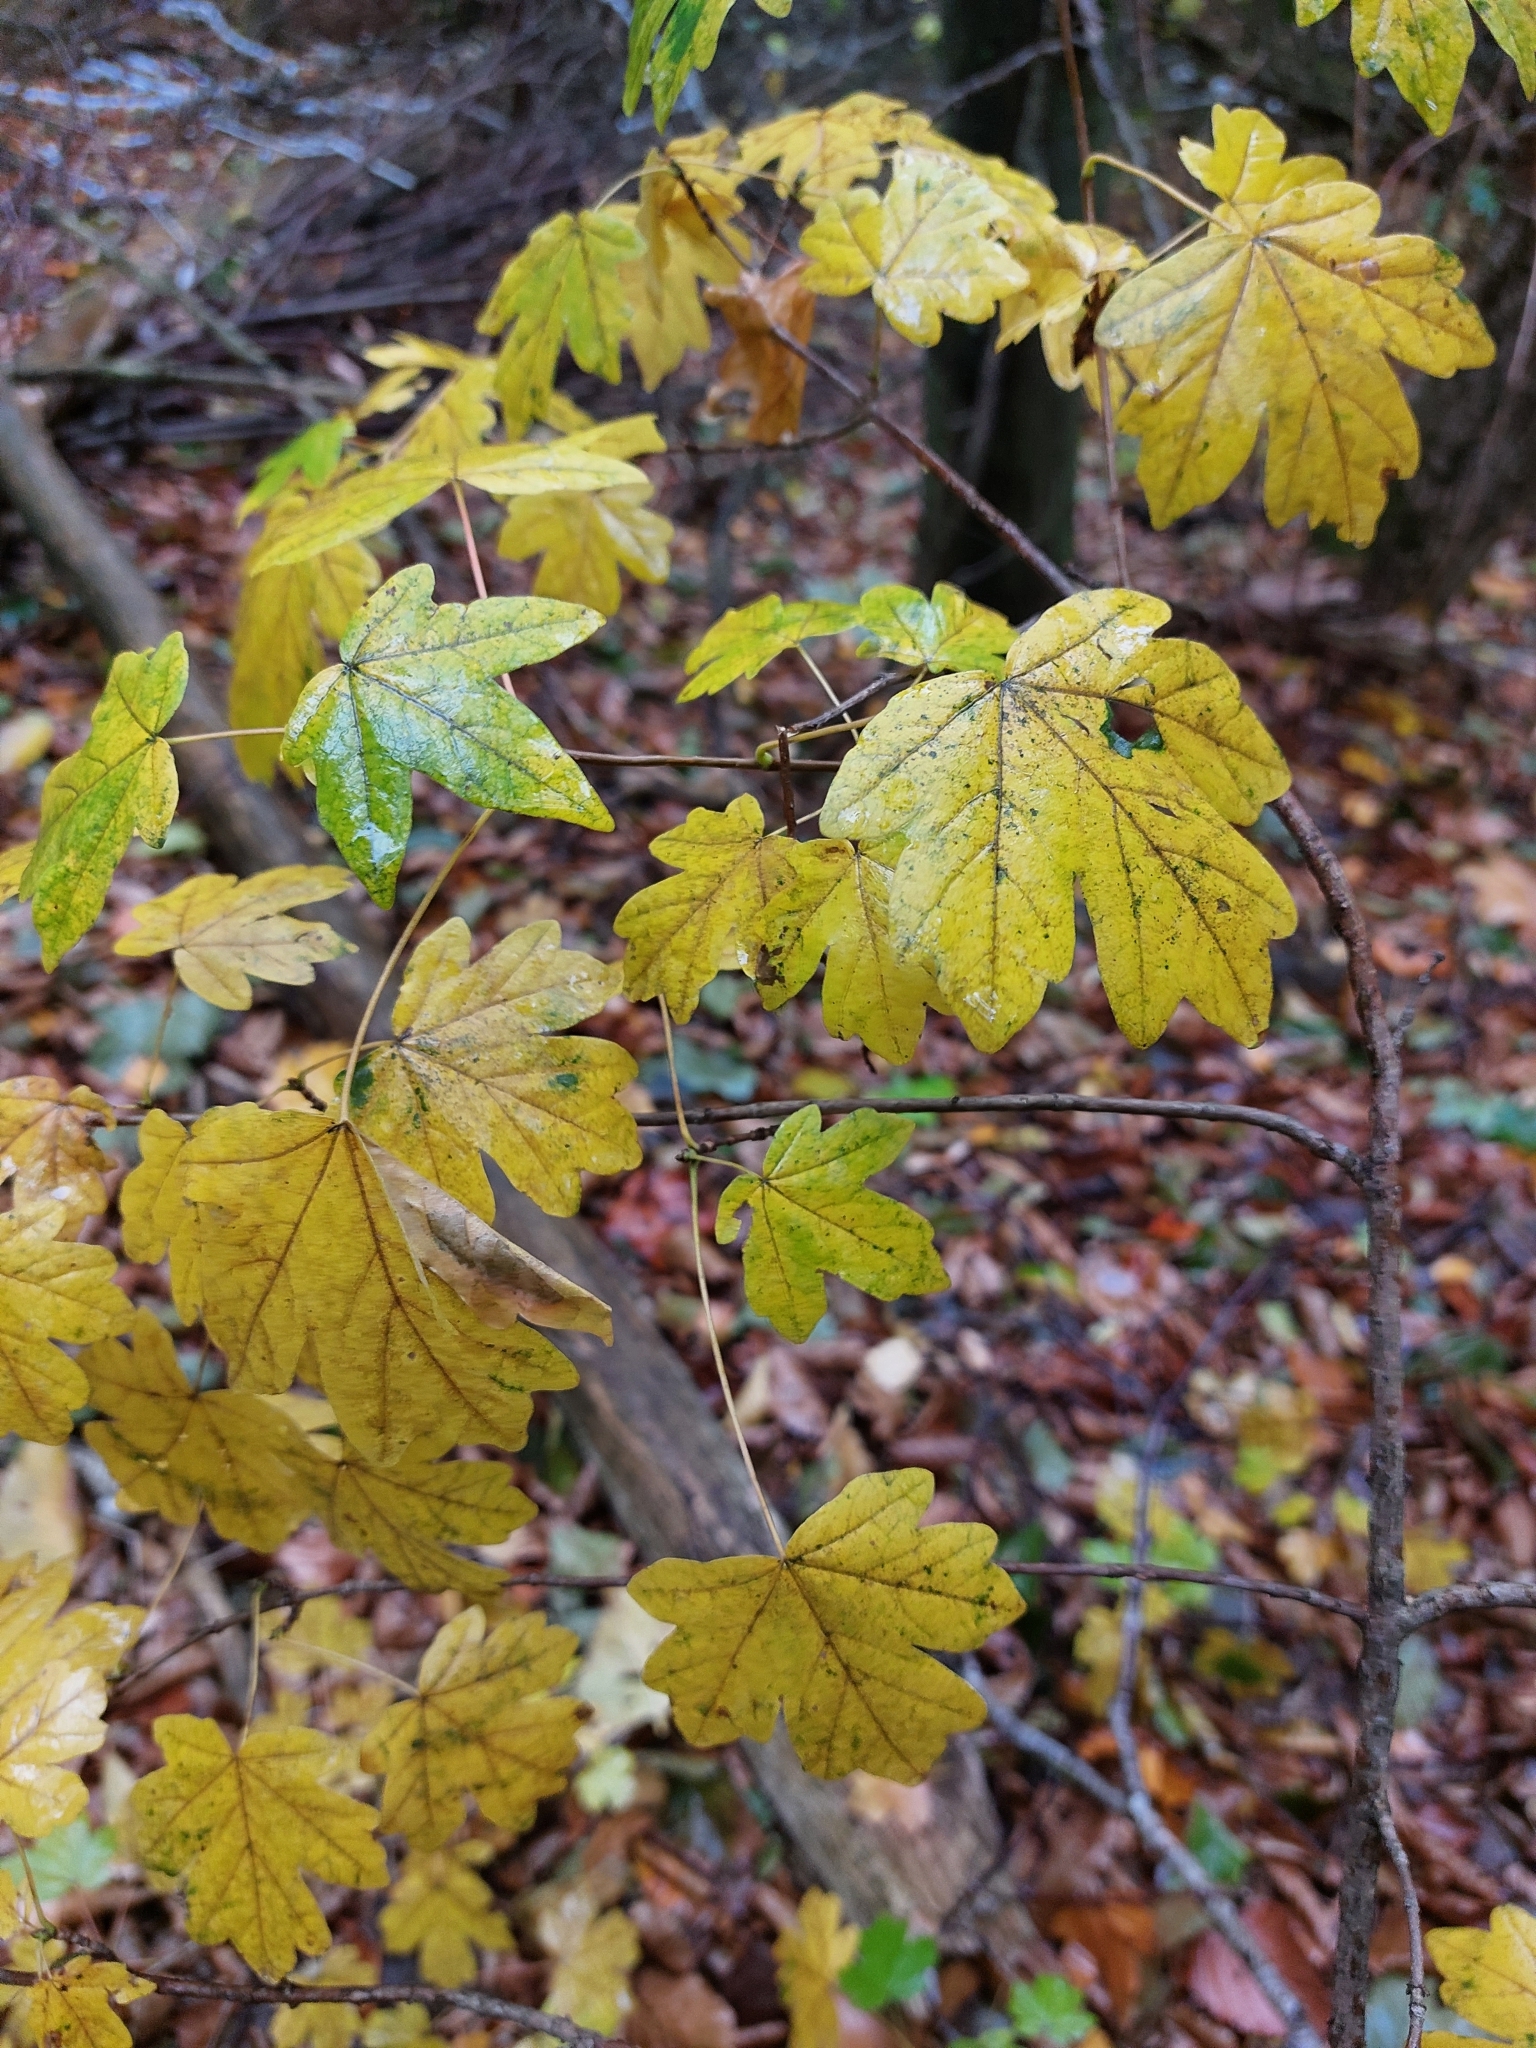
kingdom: Plantae
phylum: Tracheophyta
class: Magnoliopsida
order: Sapindales
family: Sapindaceae
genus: Acer
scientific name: Acer campestre
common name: Field maple
